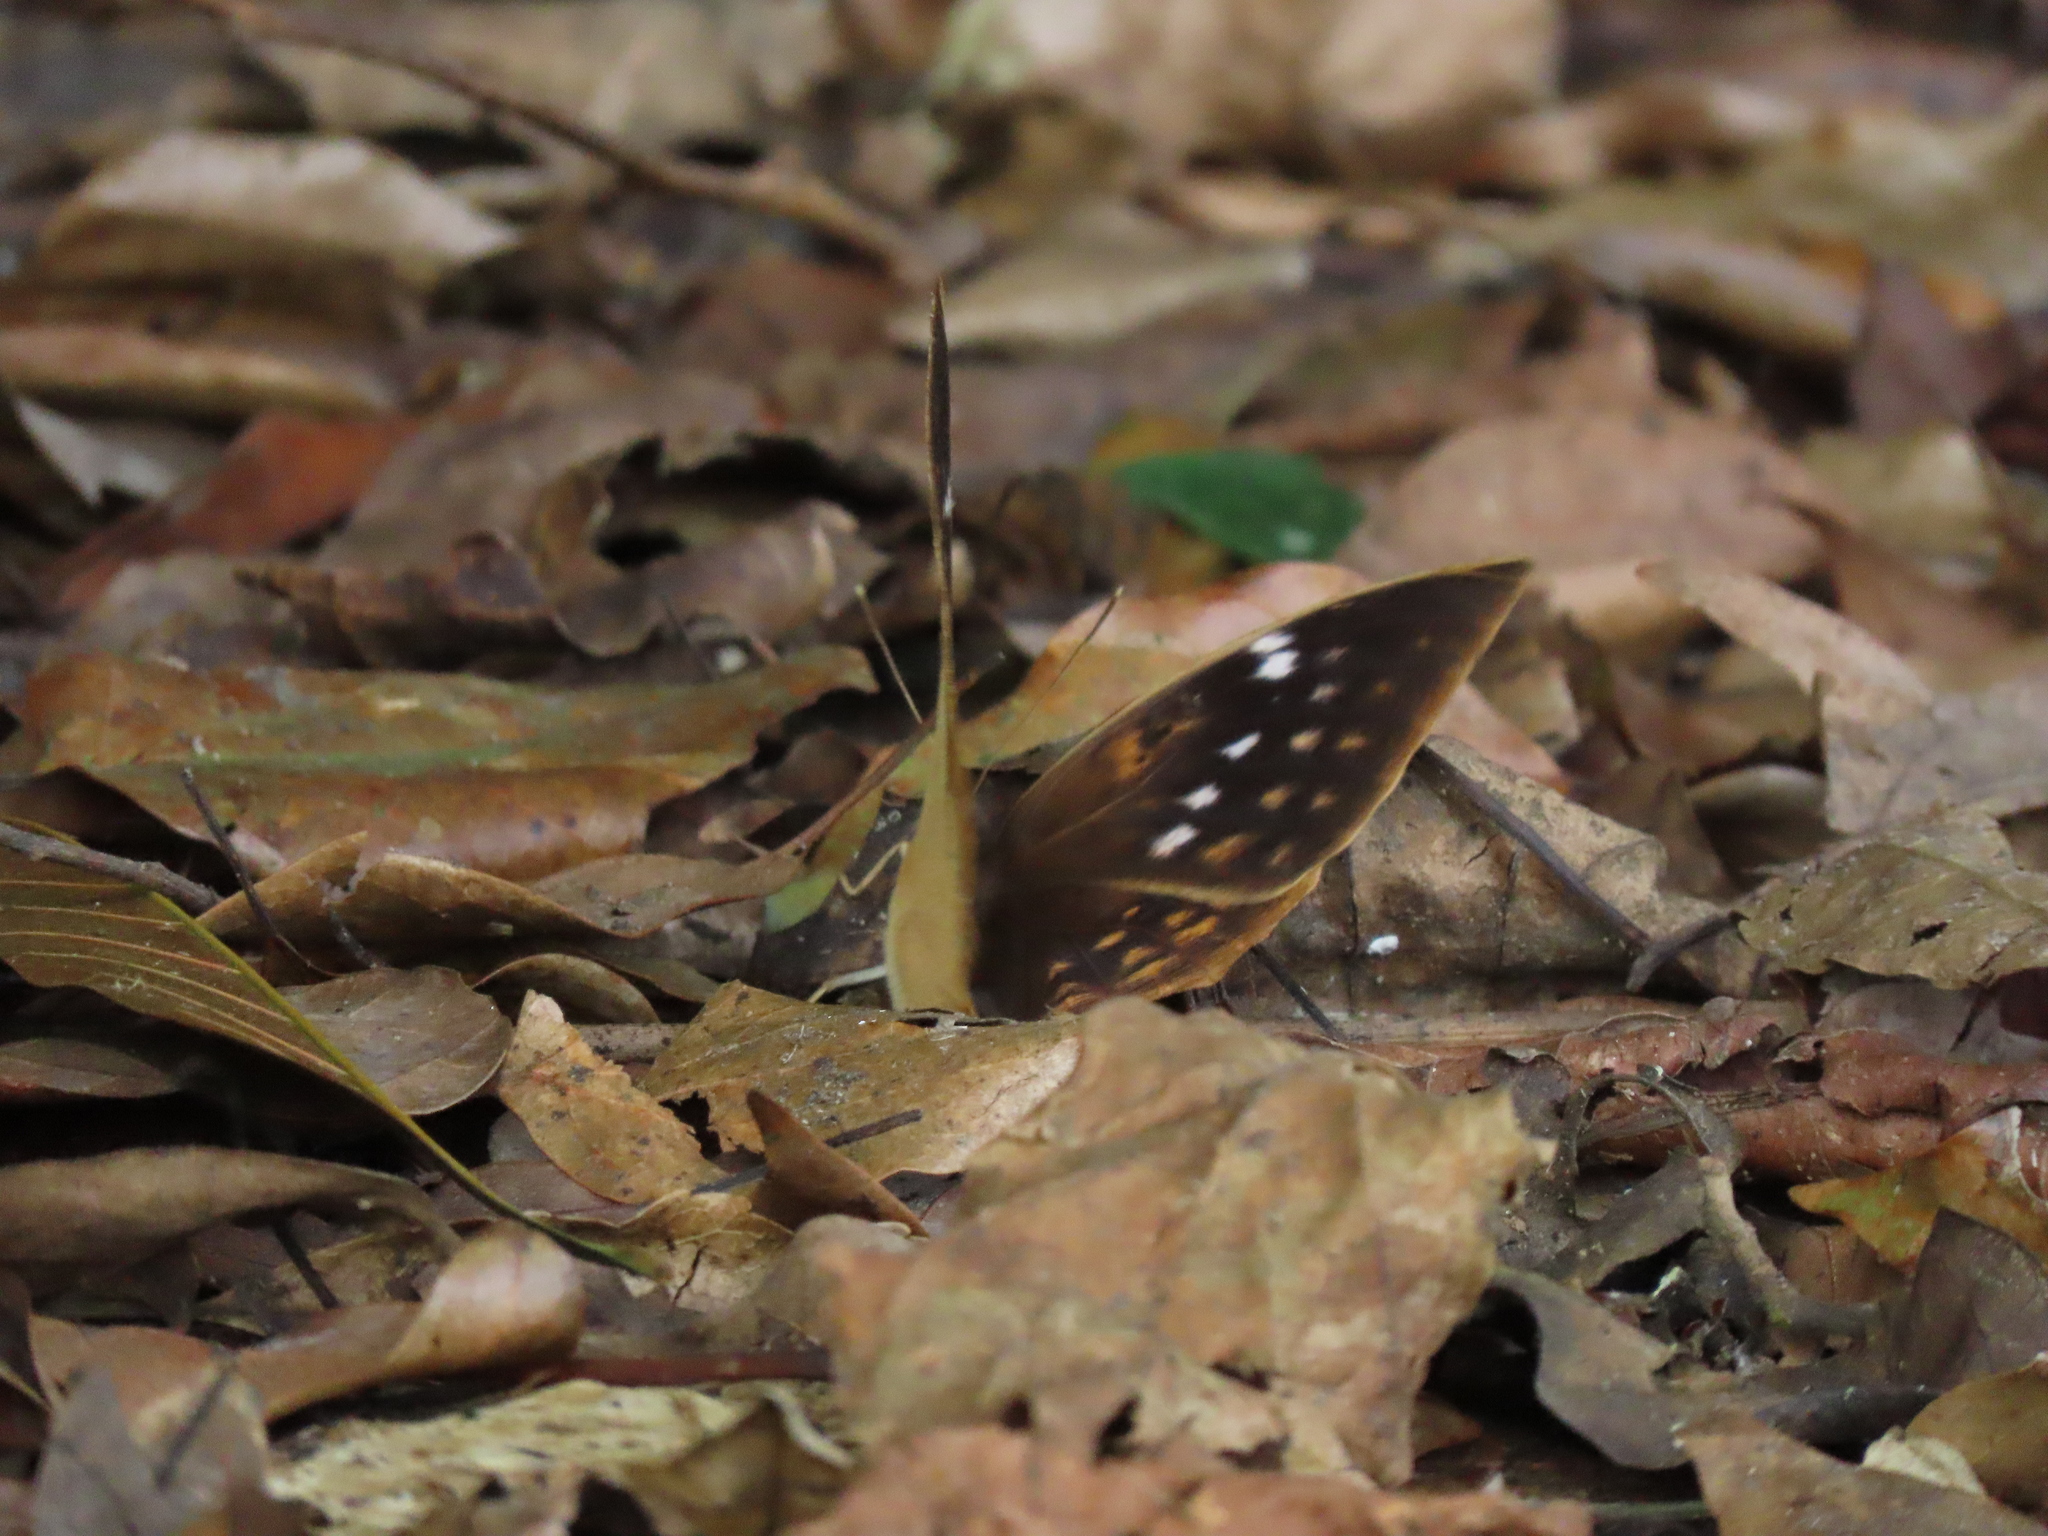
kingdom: Animalia
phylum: Arthropoda
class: Insecta
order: Lepidoptera
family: Nymphalidae
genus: Discophora
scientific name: Discophora sondaica
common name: Common duffer
